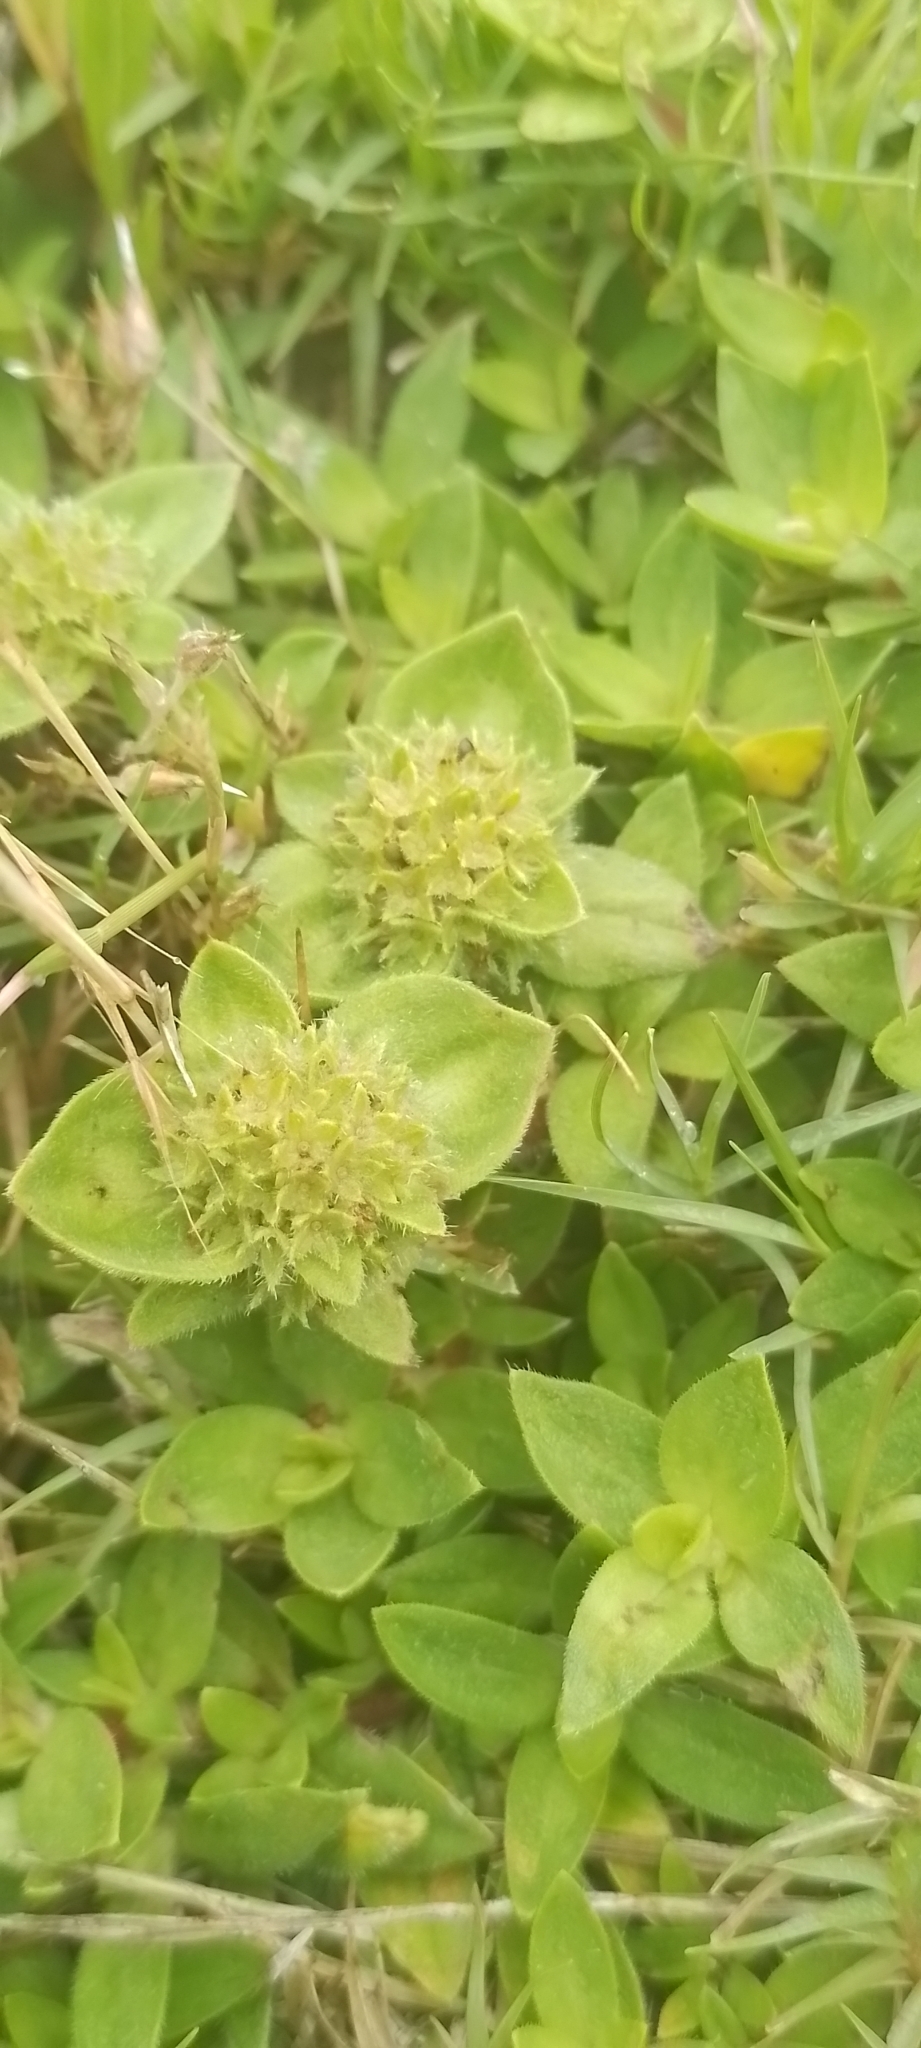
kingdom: Plantae
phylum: Tracheophyta
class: Magnoliopsida
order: Gentianales
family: Rubiaceae
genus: Richardia
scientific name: Richardia humistrata
